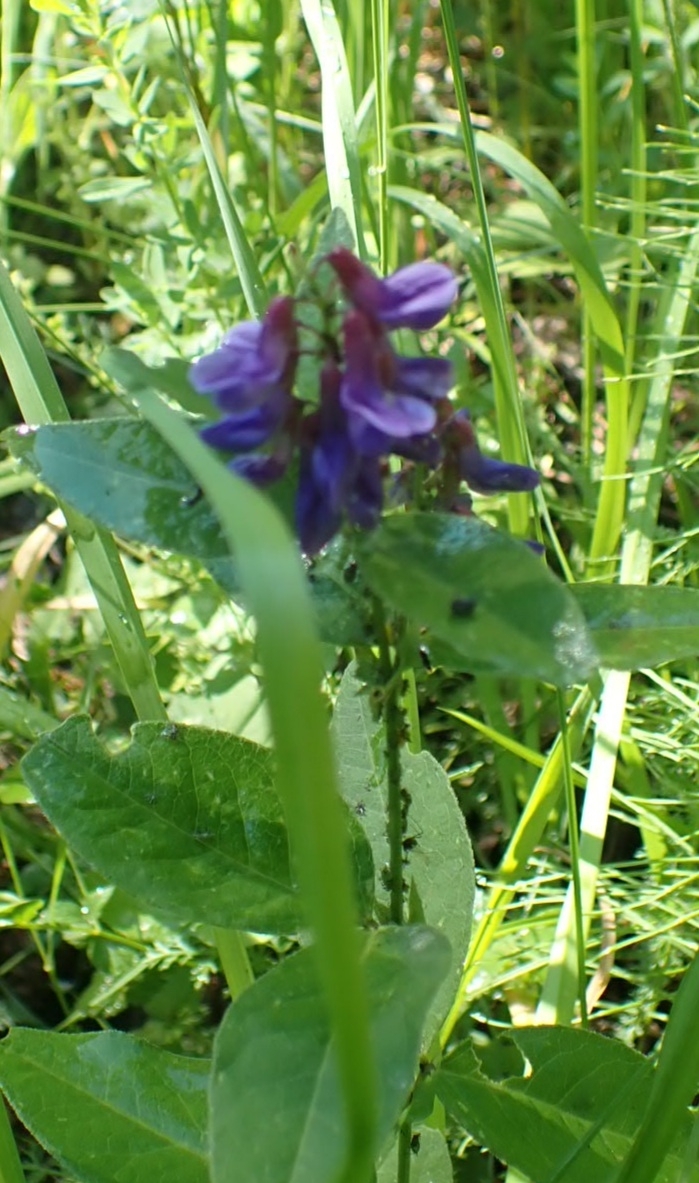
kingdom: Plantae
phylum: Tracheophyta
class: Magnoliopsida
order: Fabales
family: Fabaceae
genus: Vicia
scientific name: Vicia unijuga
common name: Two-leaf vetch
